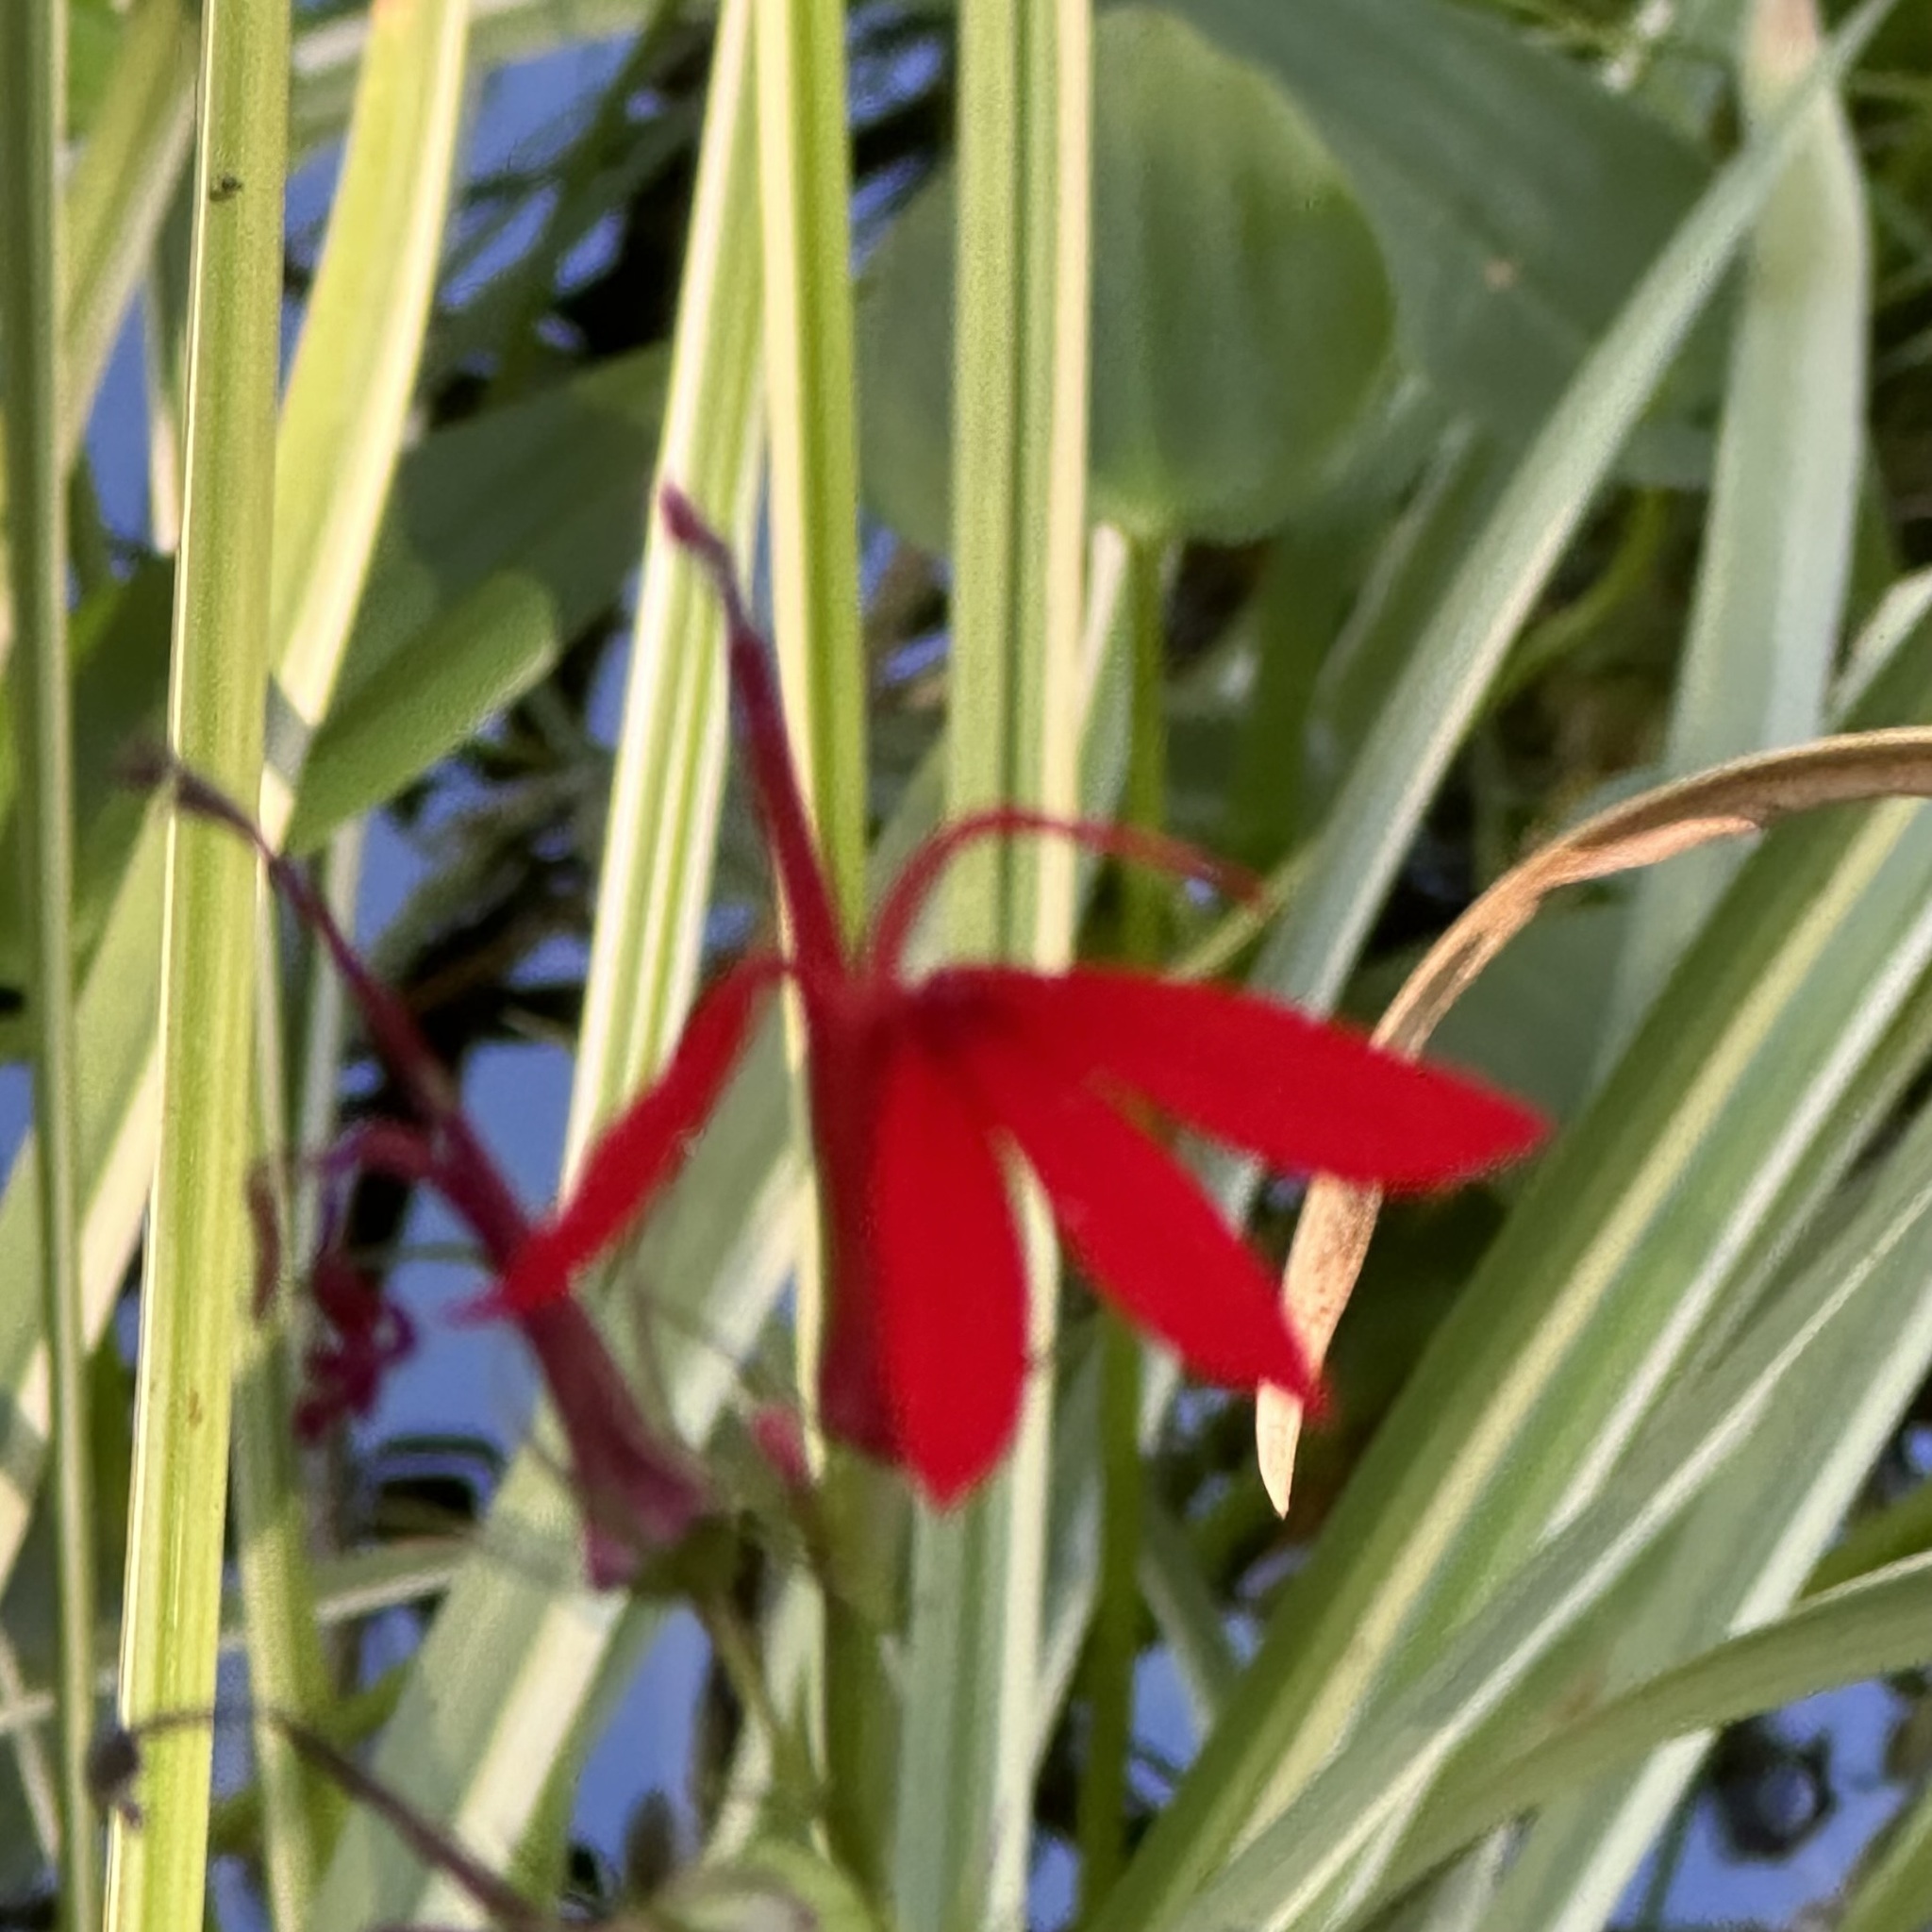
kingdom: Plantae
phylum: Tracheophyta
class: Magnoliopsida
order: Asterales
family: Campanulaceae
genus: Lobelia
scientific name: Lobelia cardinalis
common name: Cardinal flower
